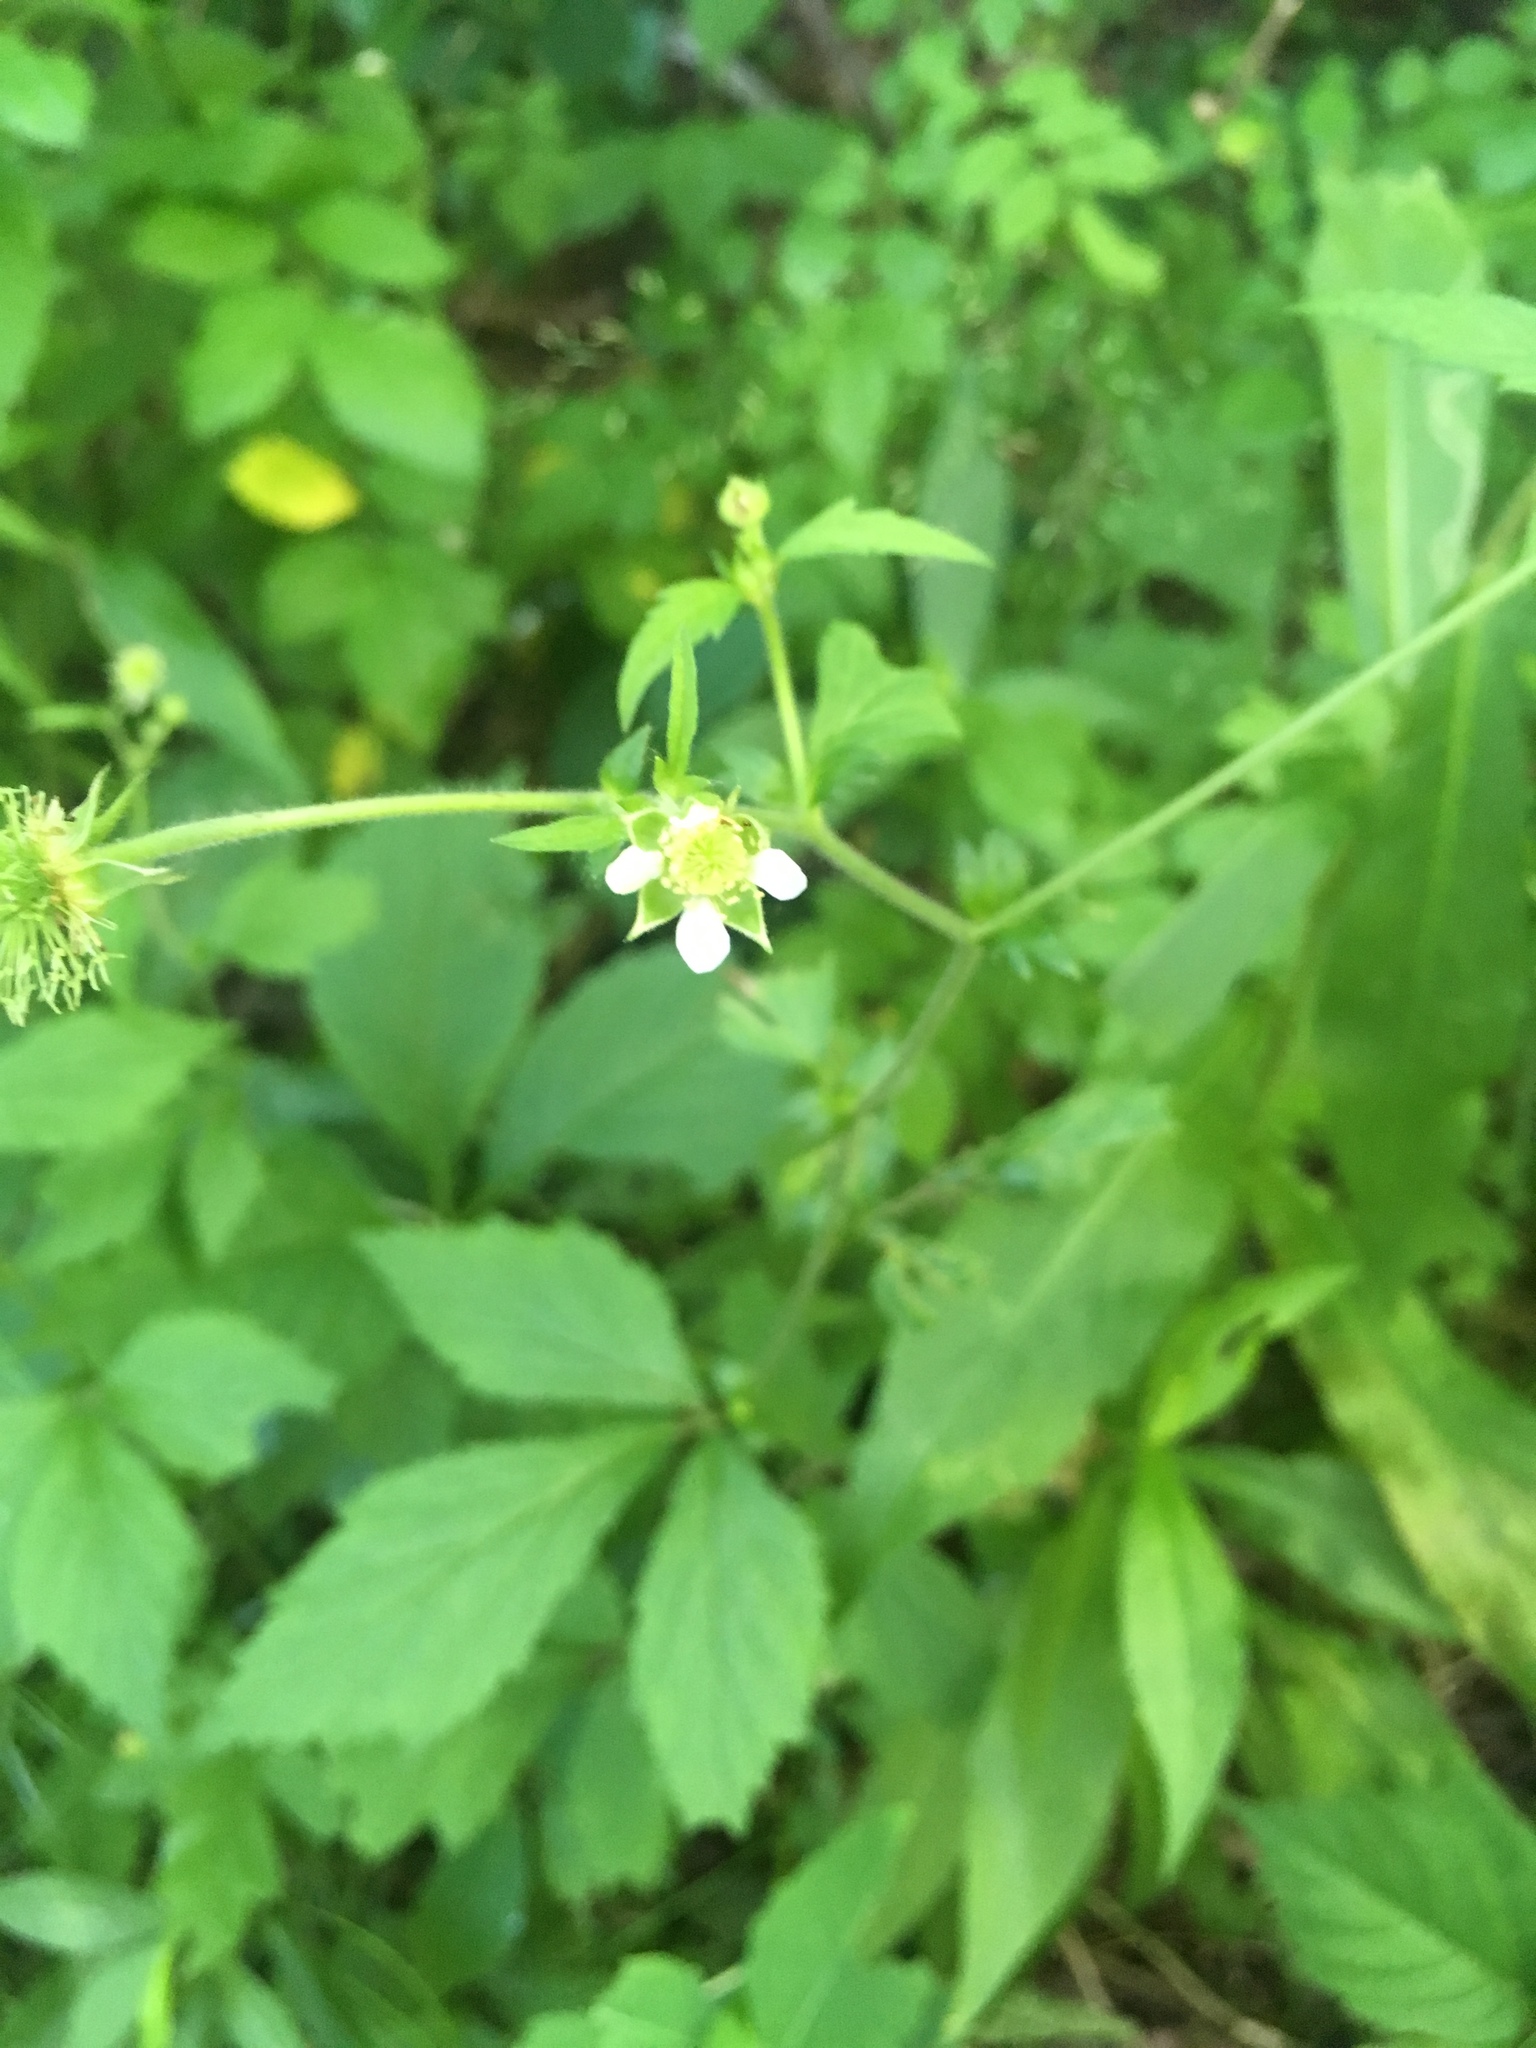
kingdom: Plantae
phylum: Tracheophyta
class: Magnoliopsida
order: Rosales
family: Rosaceae
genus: Geum
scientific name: Geum canadense
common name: White avens
